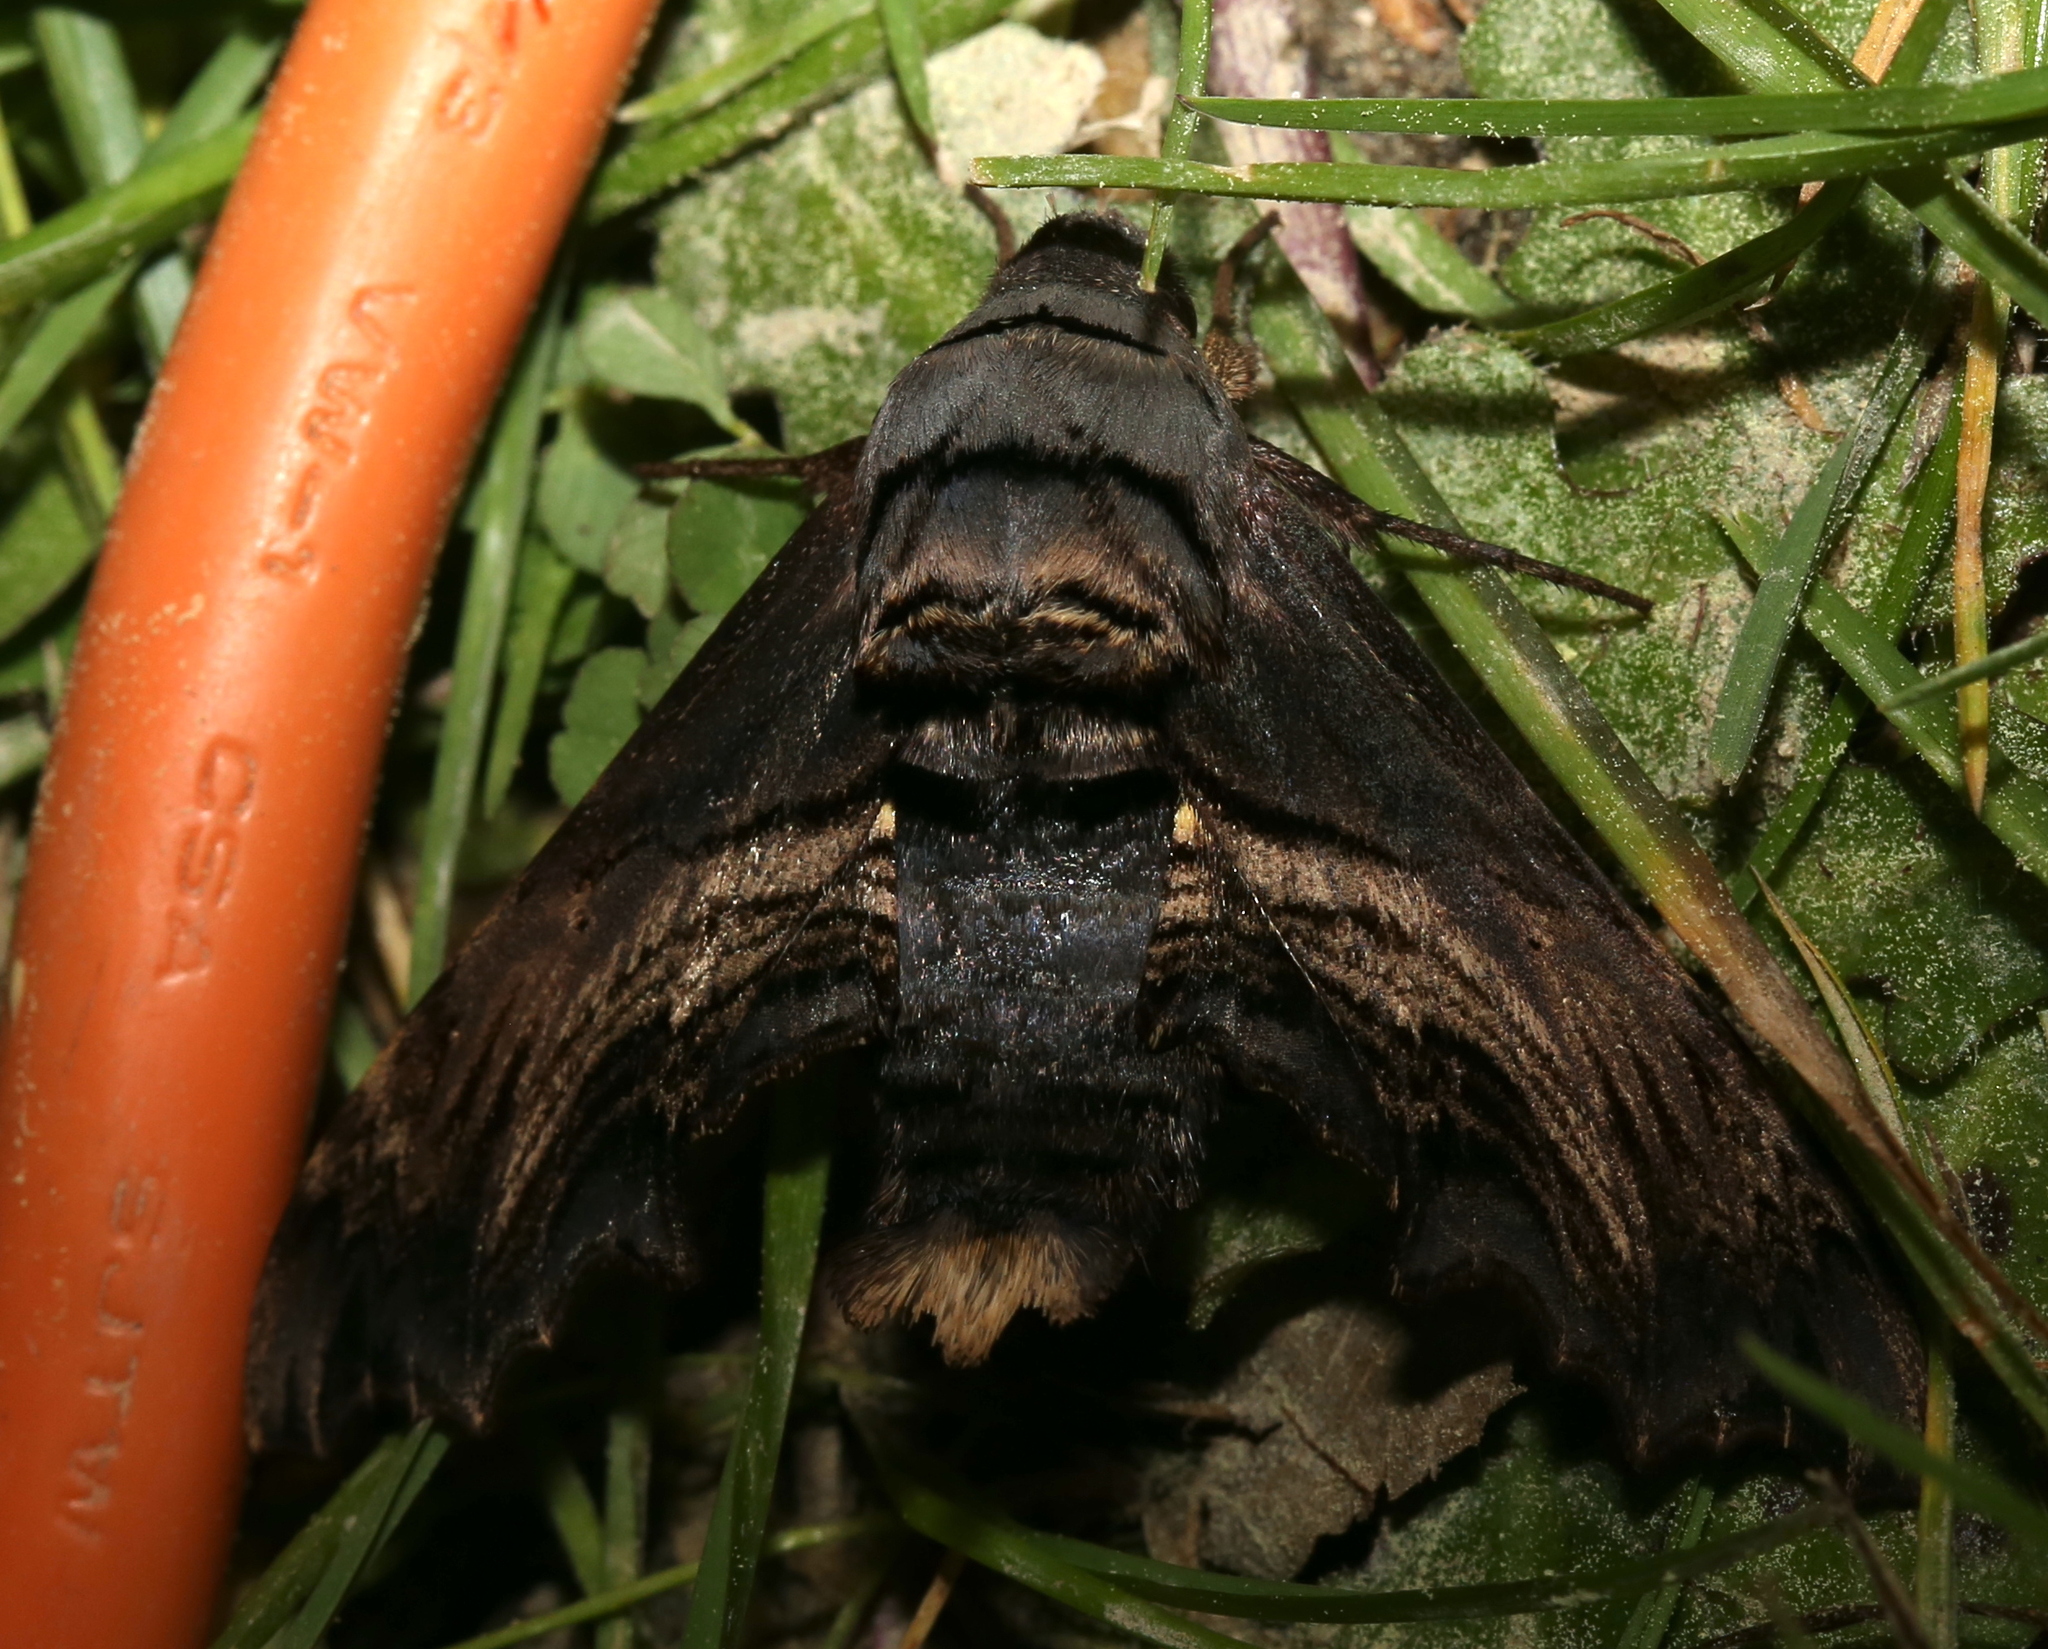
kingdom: Animalia
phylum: Arthropoda
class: Insecta
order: Lepidoptera
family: Sphingidae
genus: Sphecodina
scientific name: Sphecodina abbottii
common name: Abbott's sphinx
